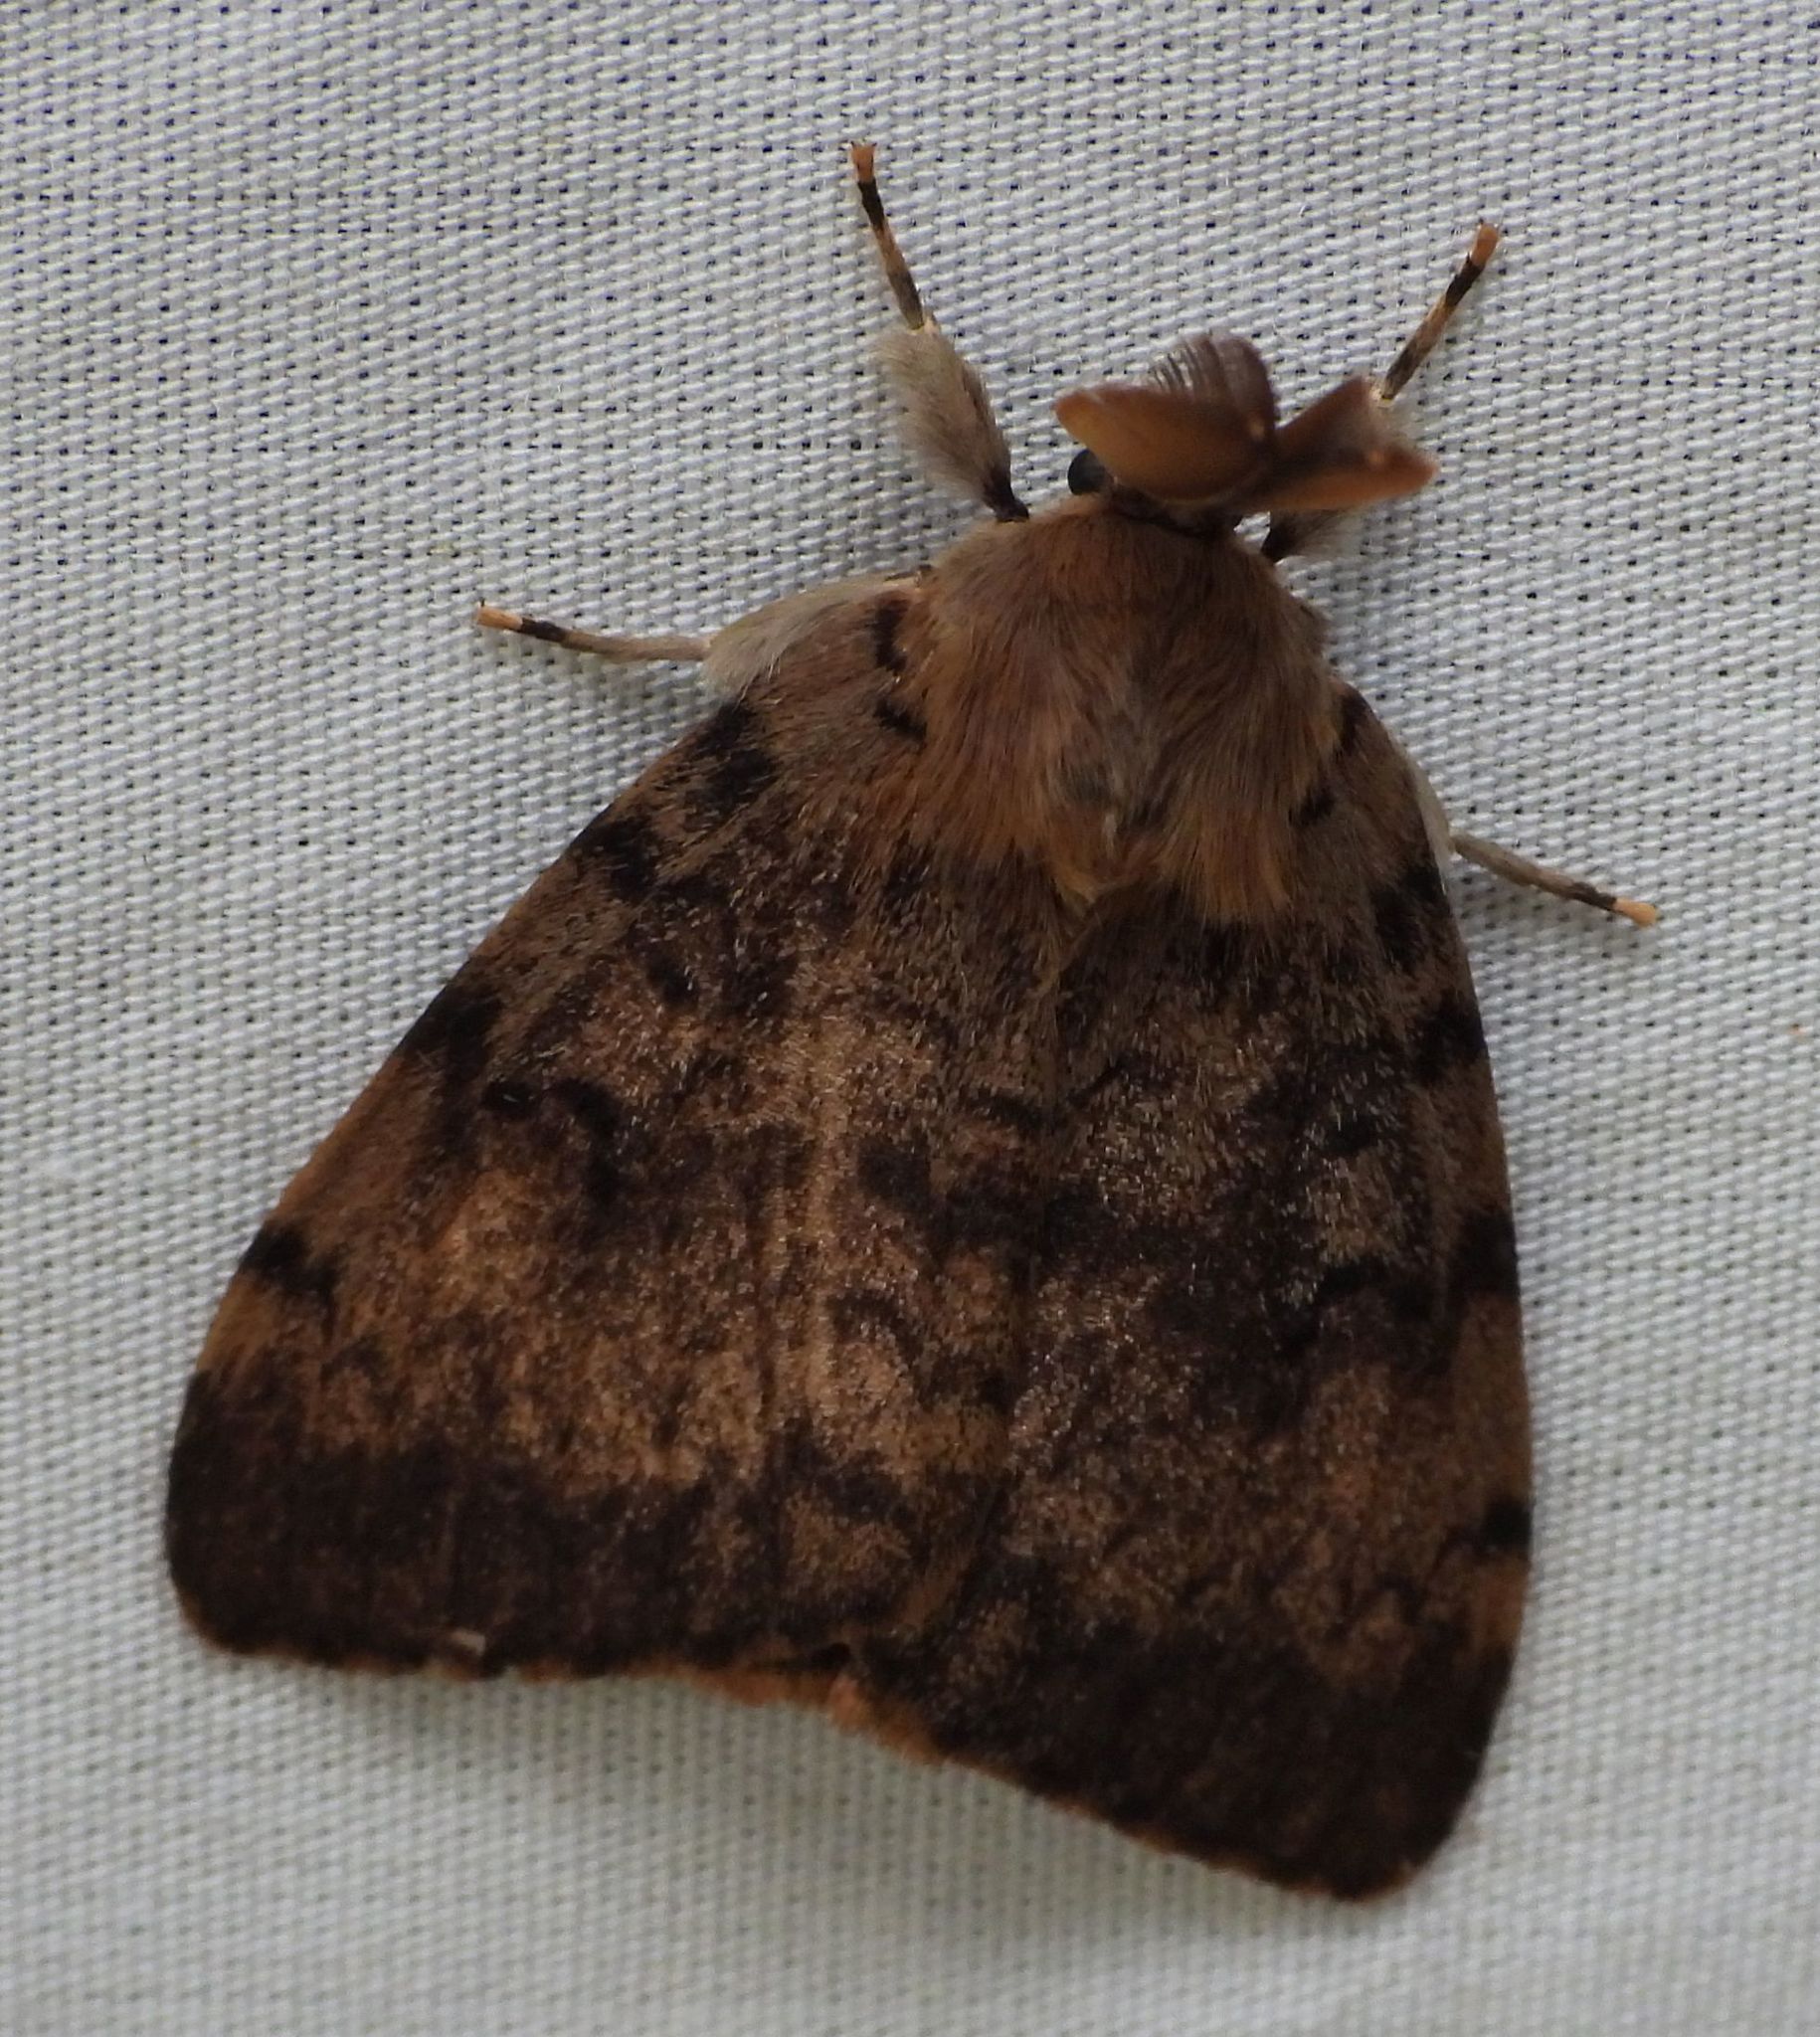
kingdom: Animalia
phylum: Arthropoda
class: Insecta
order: Lepidoptera
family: Erebidae
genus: Lymantria
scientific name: Lymantria dispar
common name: Gypsy moth
